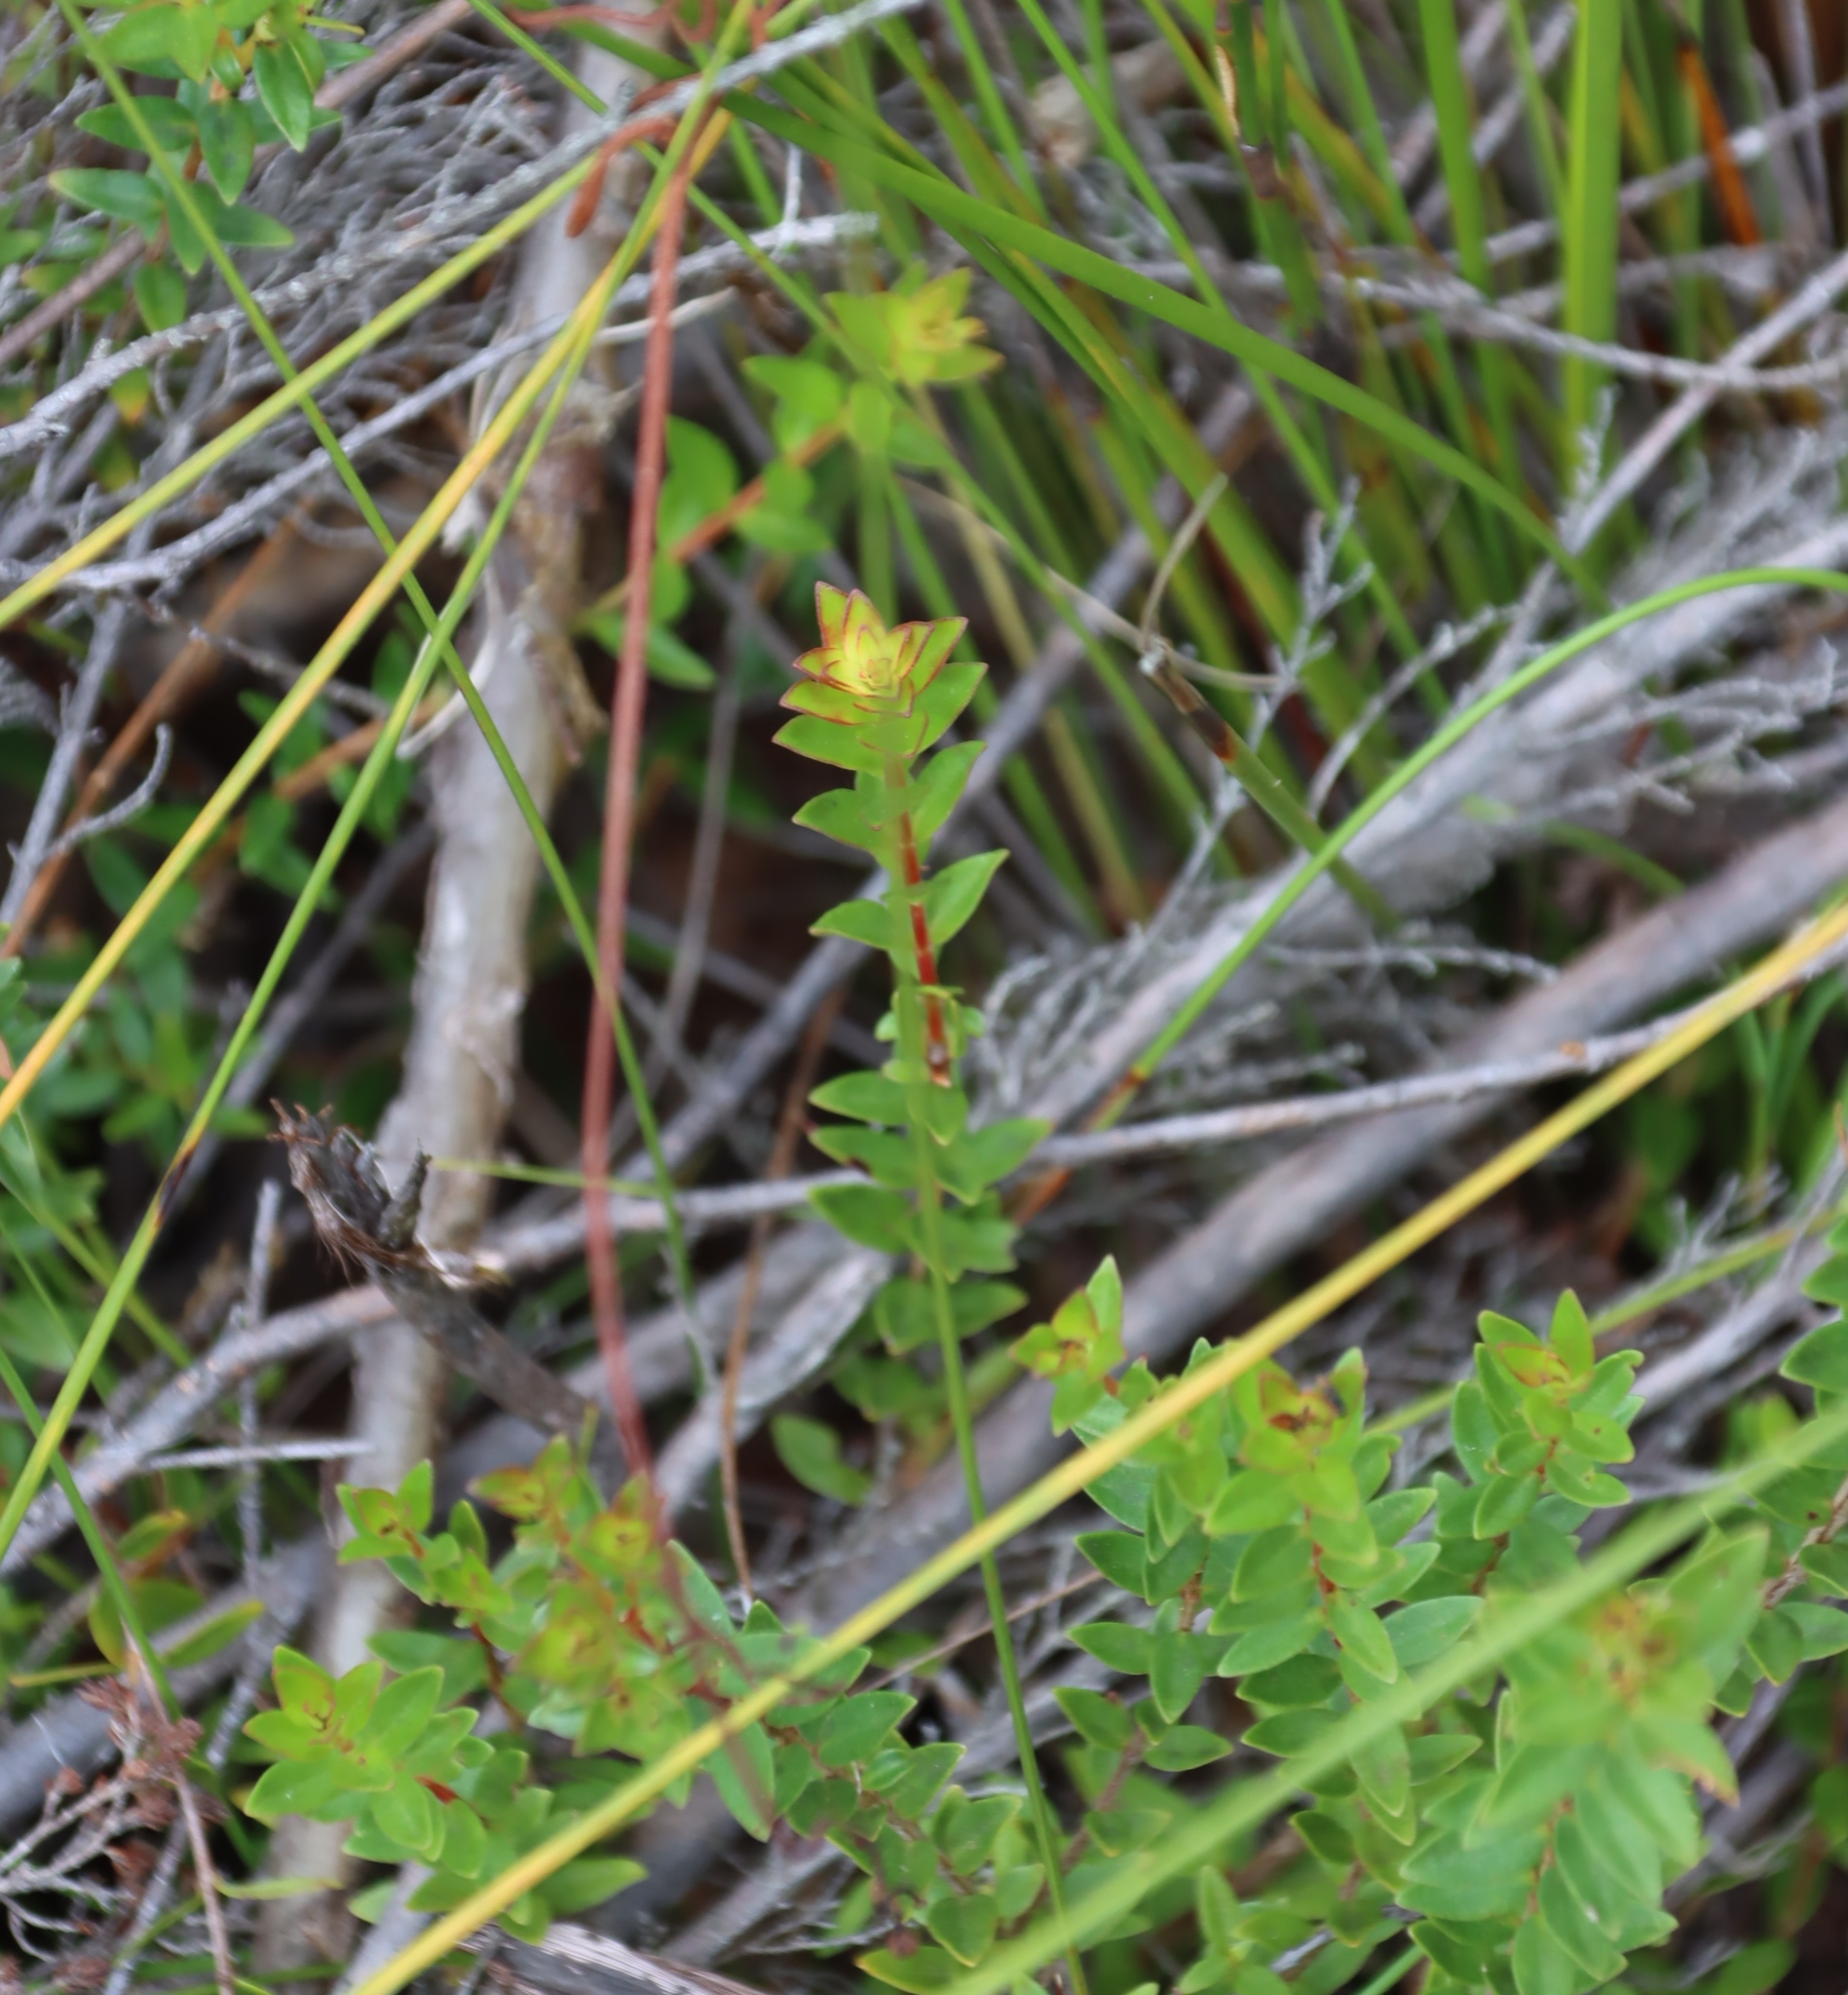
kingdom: Plantae
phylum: Tracheophyta
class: Magnoliopsida
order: Myrtales
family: Penaeaceae
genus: Penaea
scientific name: Penaea cneorum
